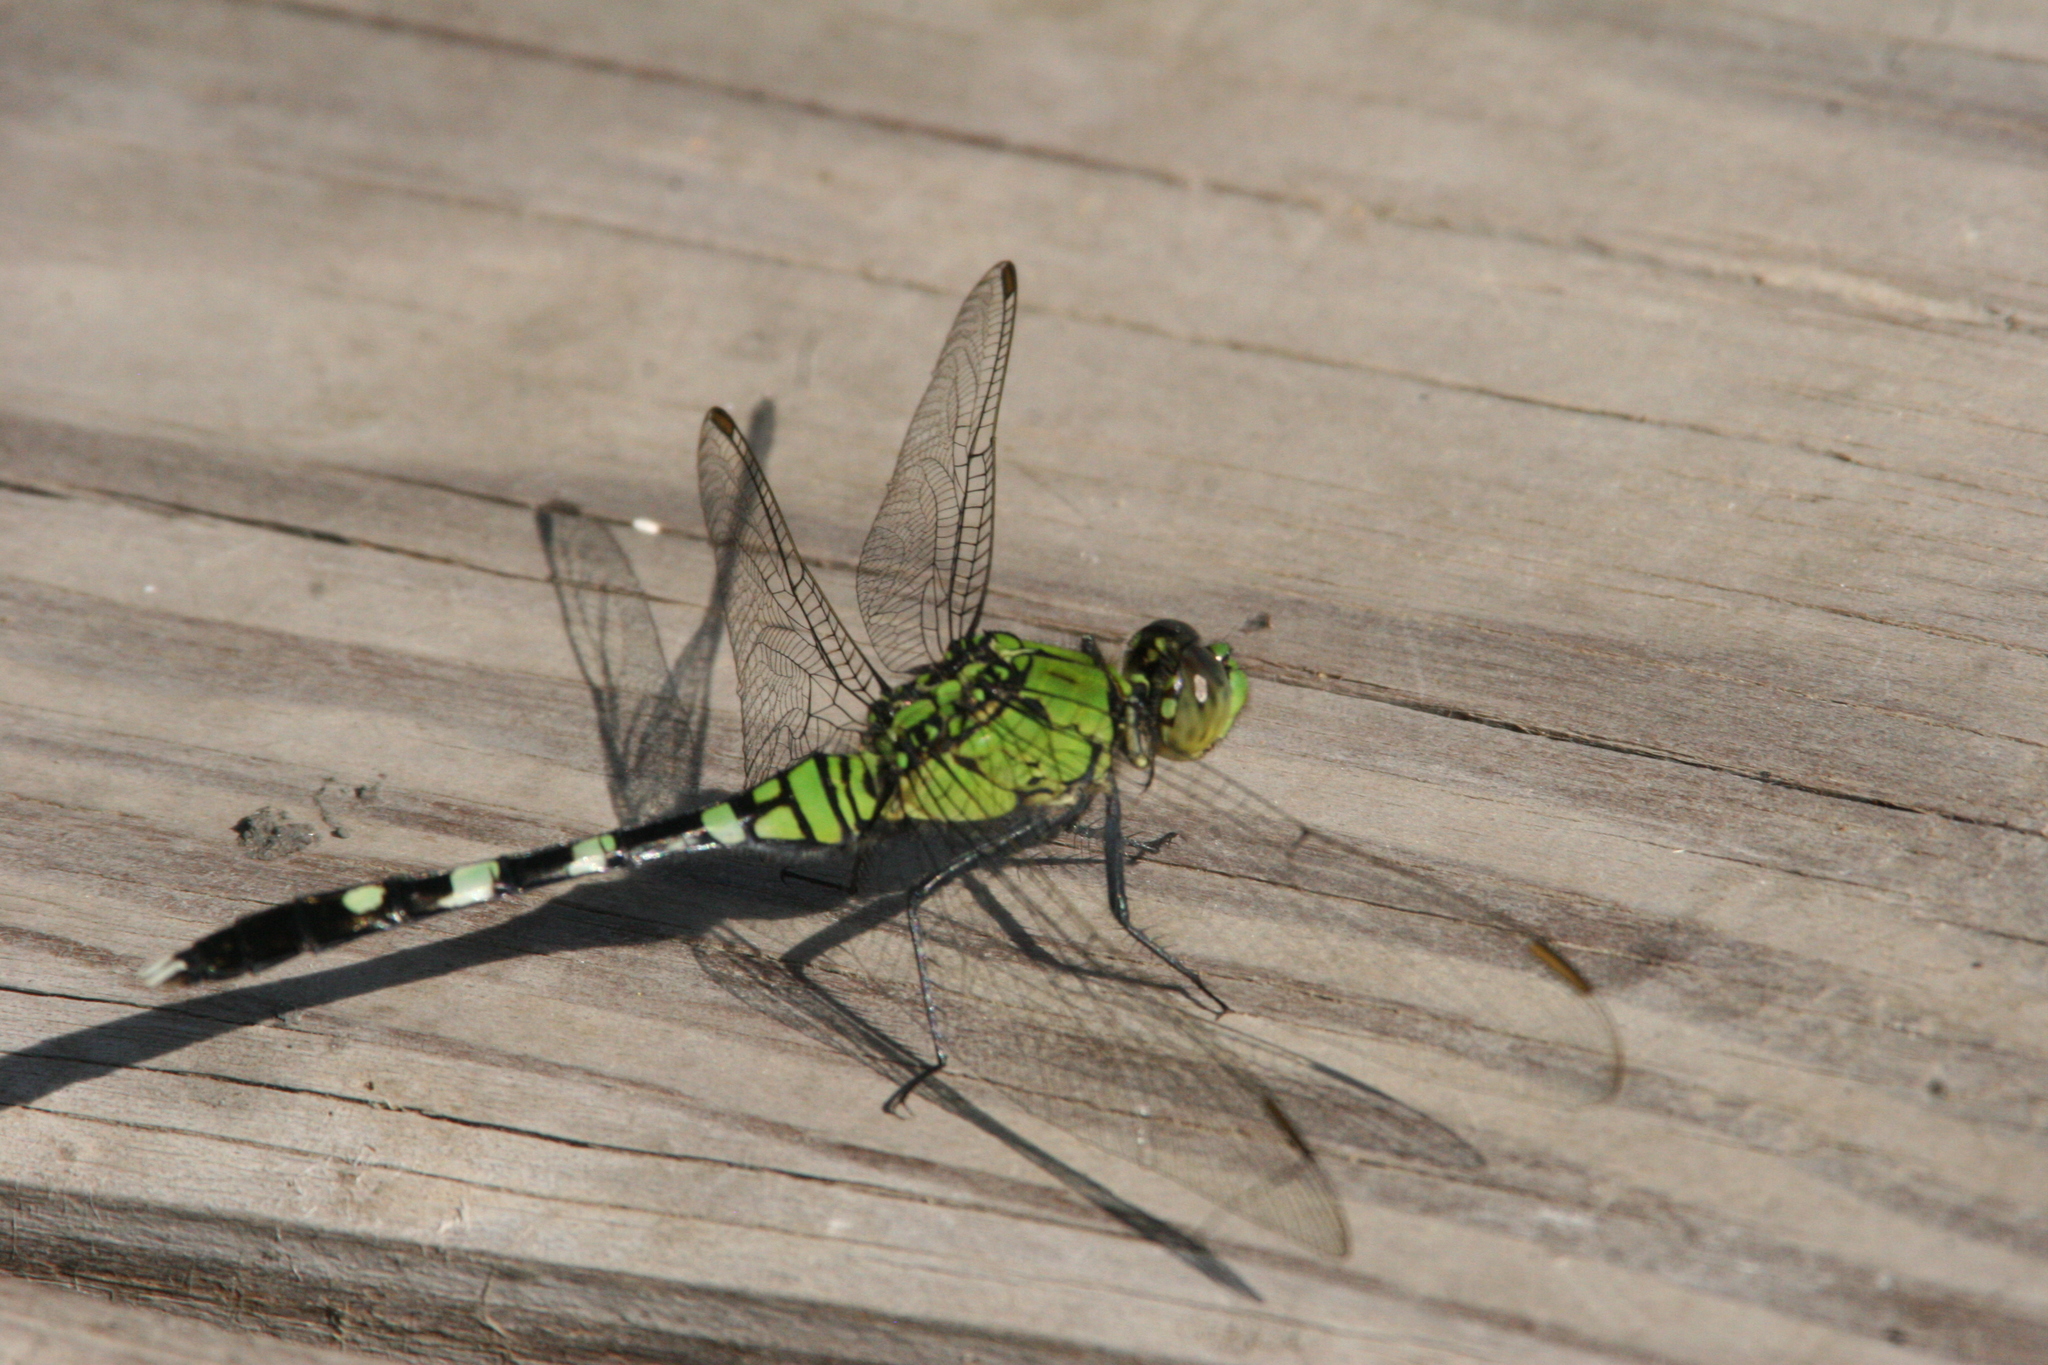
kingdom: Animalia
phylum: Arthropoda
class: Insecta
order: Odonata
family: Libellulidae
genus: Erythemis
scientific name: Erythemis simplicicollis
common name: Eastern pondhawk
